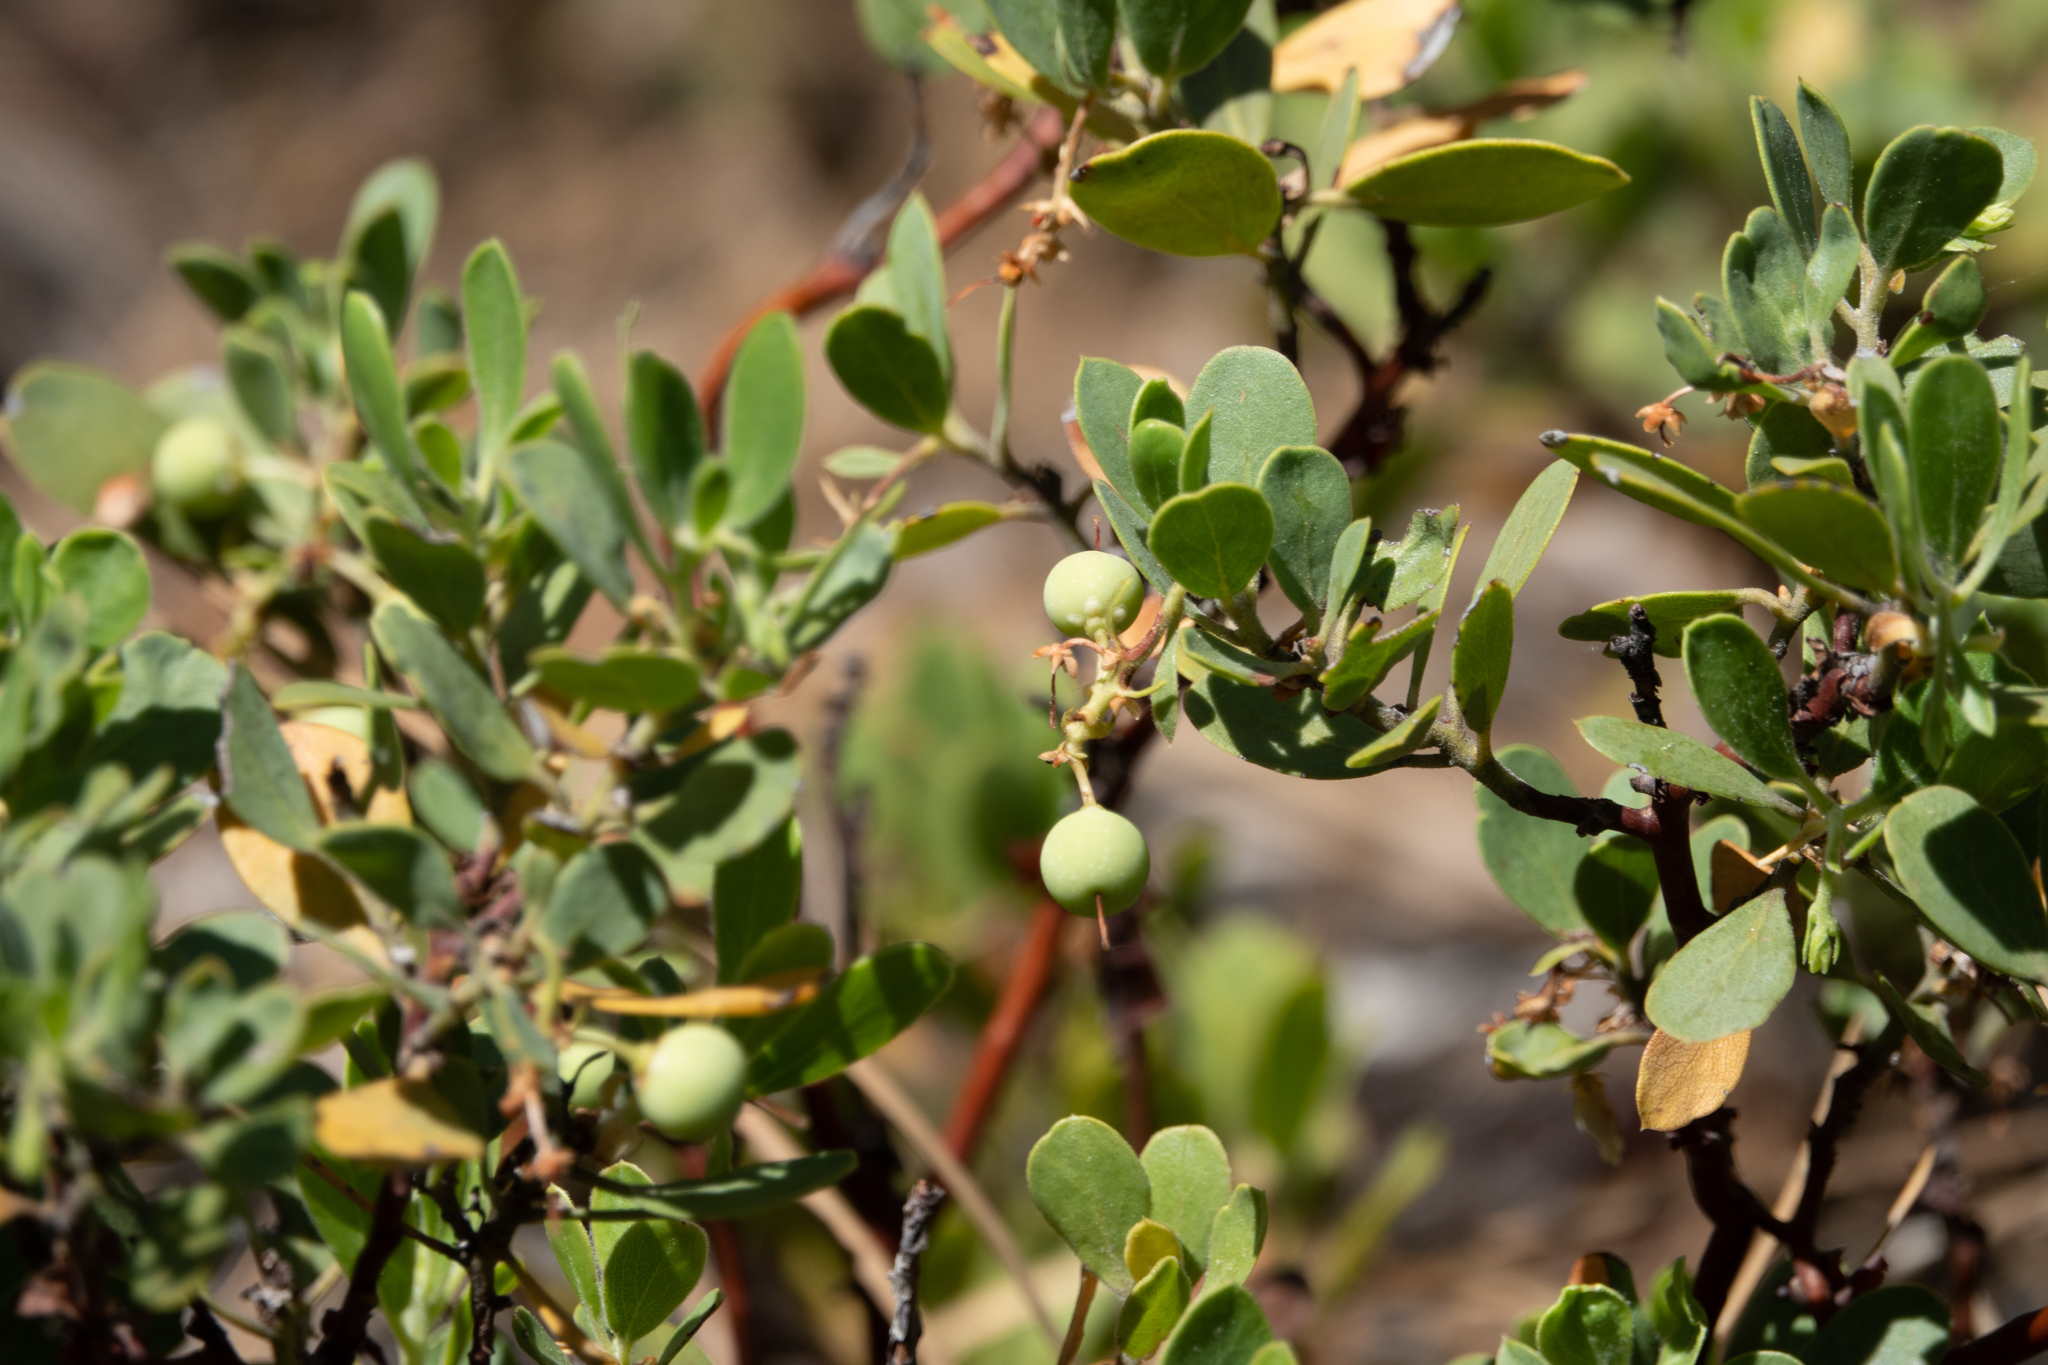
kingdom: Plantae
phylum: Tracheophyta
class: Magnoliopsida
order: Ericales
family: Ericaceae
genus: Arctostaphylos
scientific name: Arctostaphylos nevadensis
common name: Pinemat manzanita
